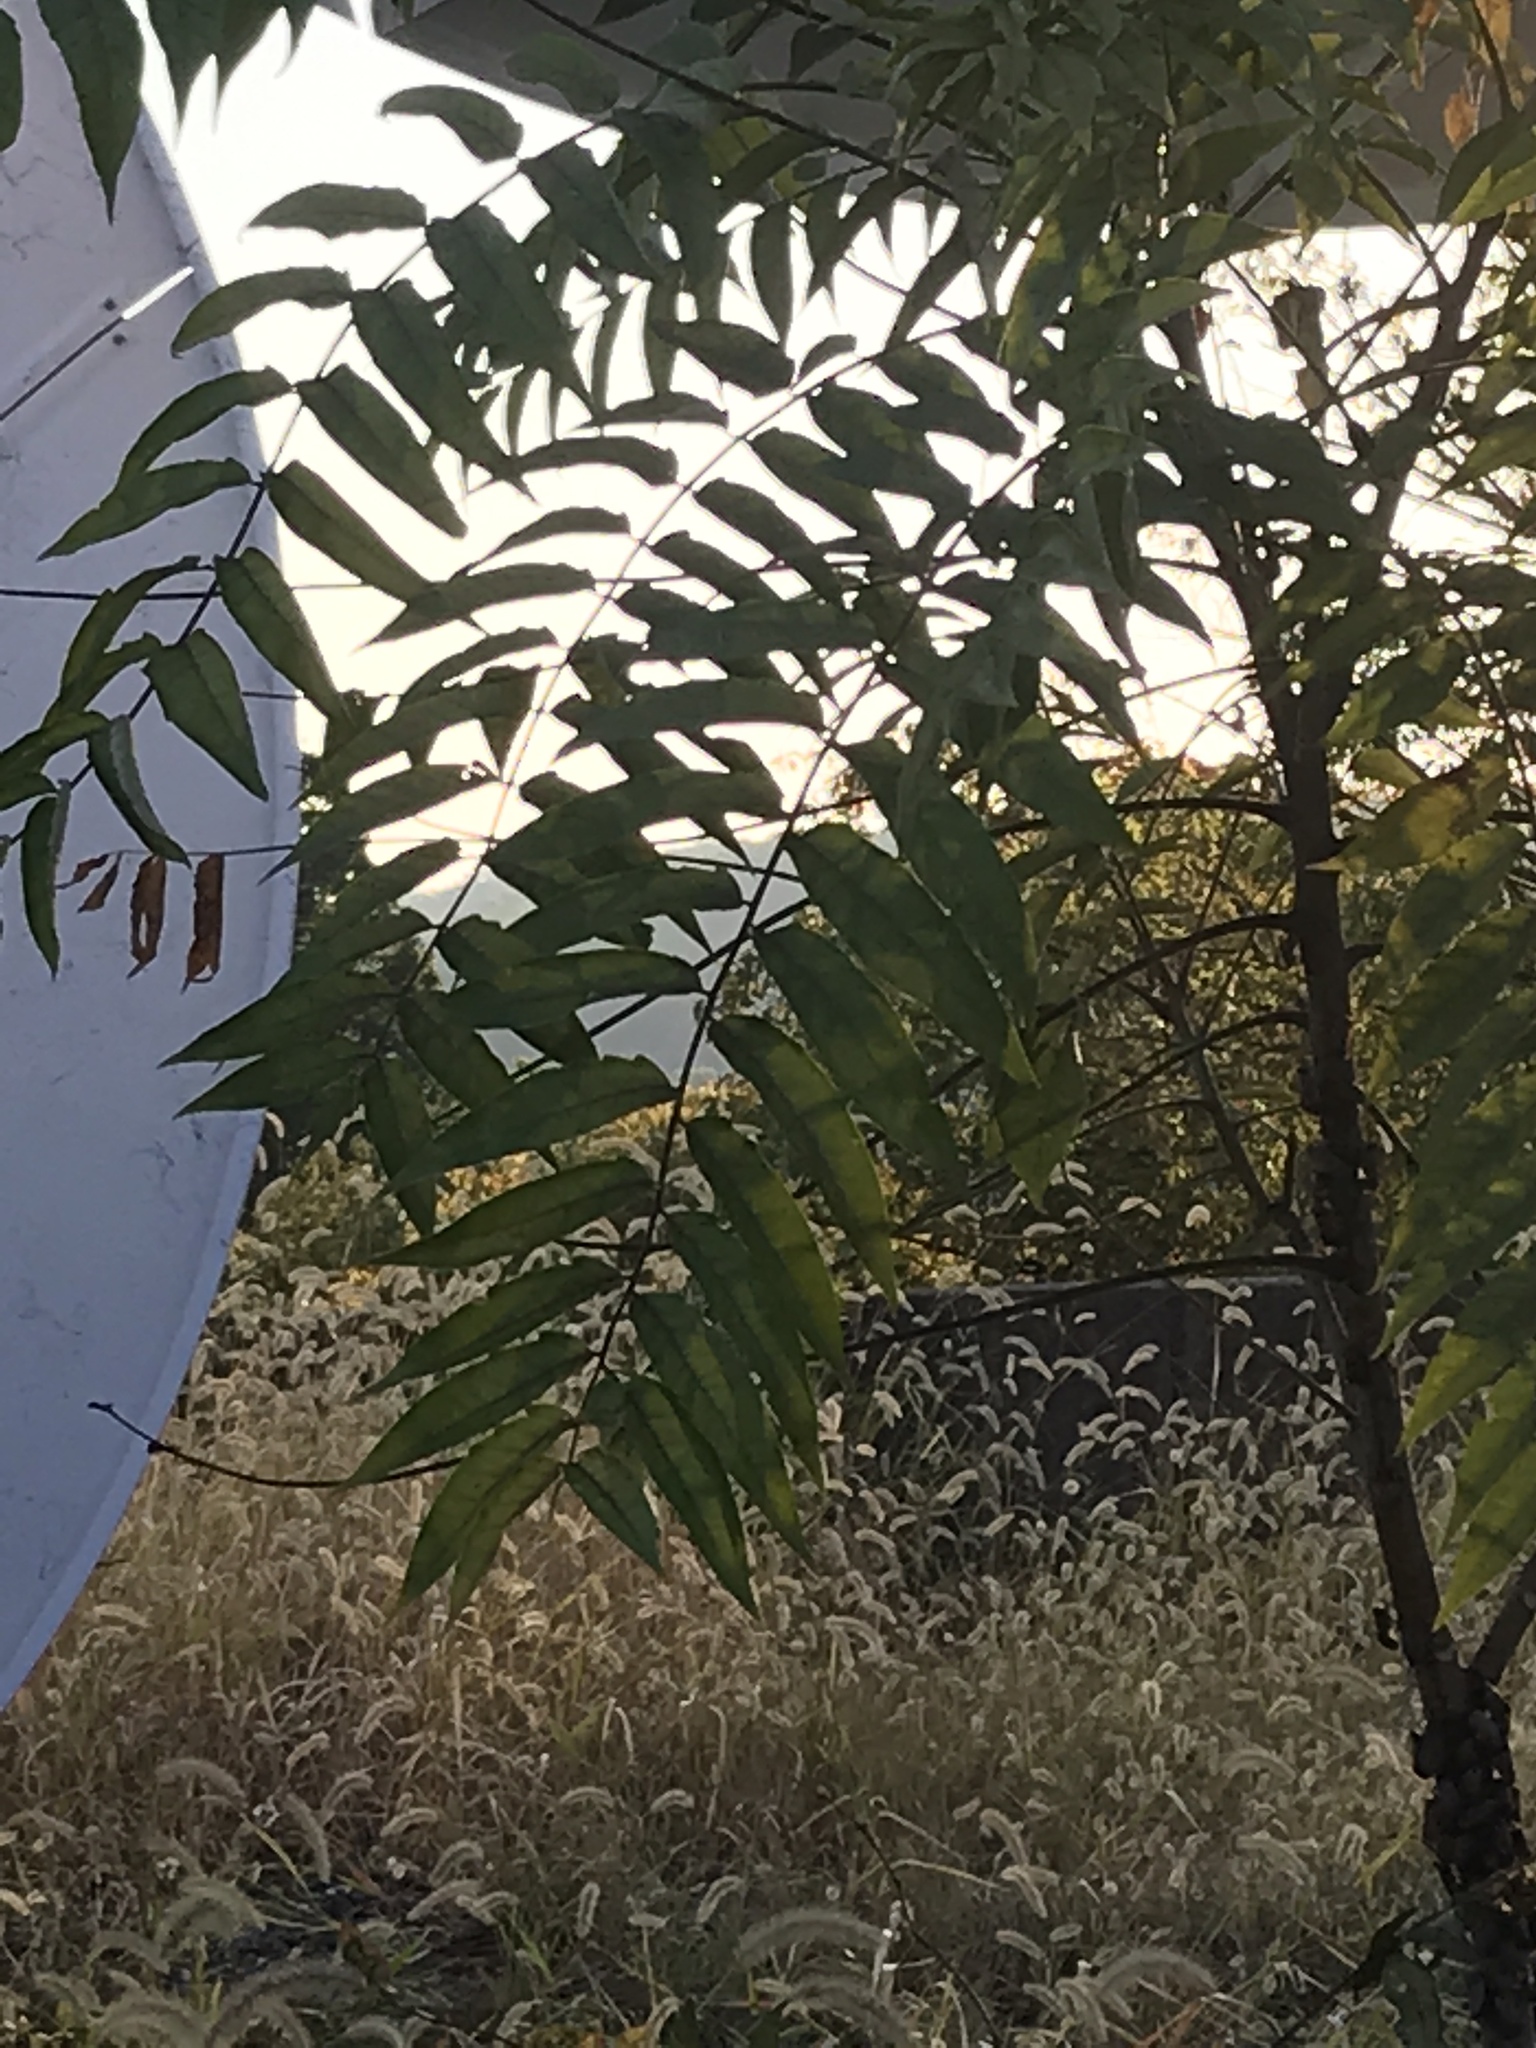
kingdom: Plantae
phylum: Tracheophyta
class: Magnoliopsida
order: Sapindales
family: Simaroubaceae
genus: Ailanthus
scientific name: Ailanthus altissima
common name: Tree-of-heaven
